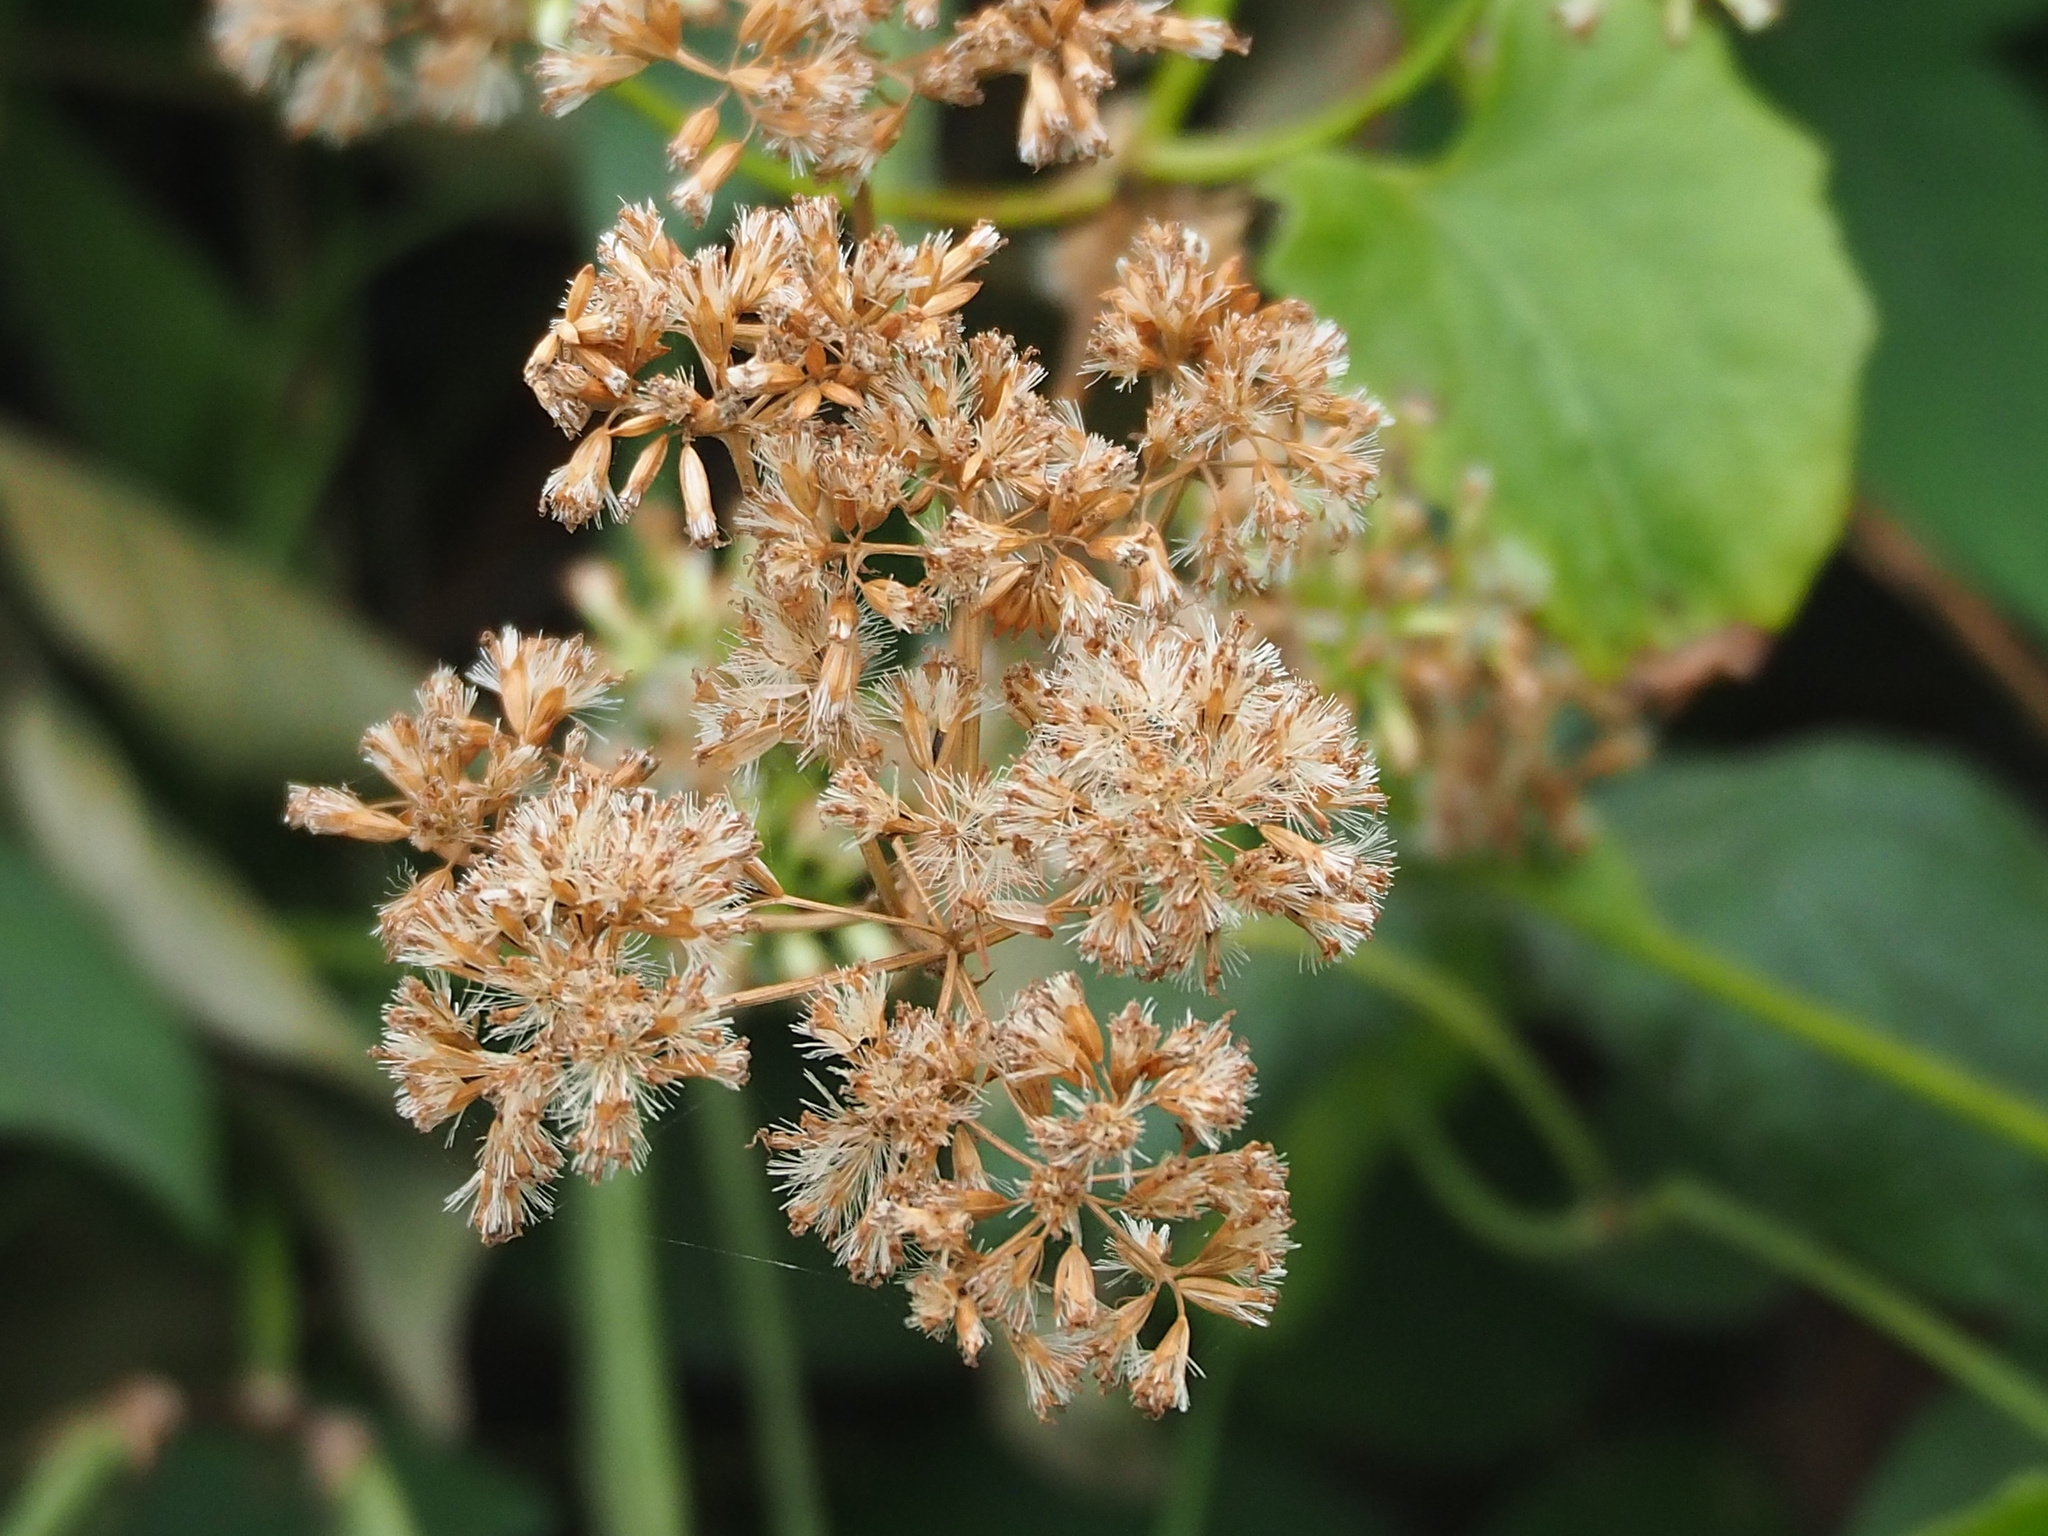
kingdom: Plantae
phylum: Tracheophyta
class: Magnoliopsida
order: Asterales
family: Asteraceae
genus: Mikania
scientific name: Mikania micrantha
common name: Mile-a-minute
